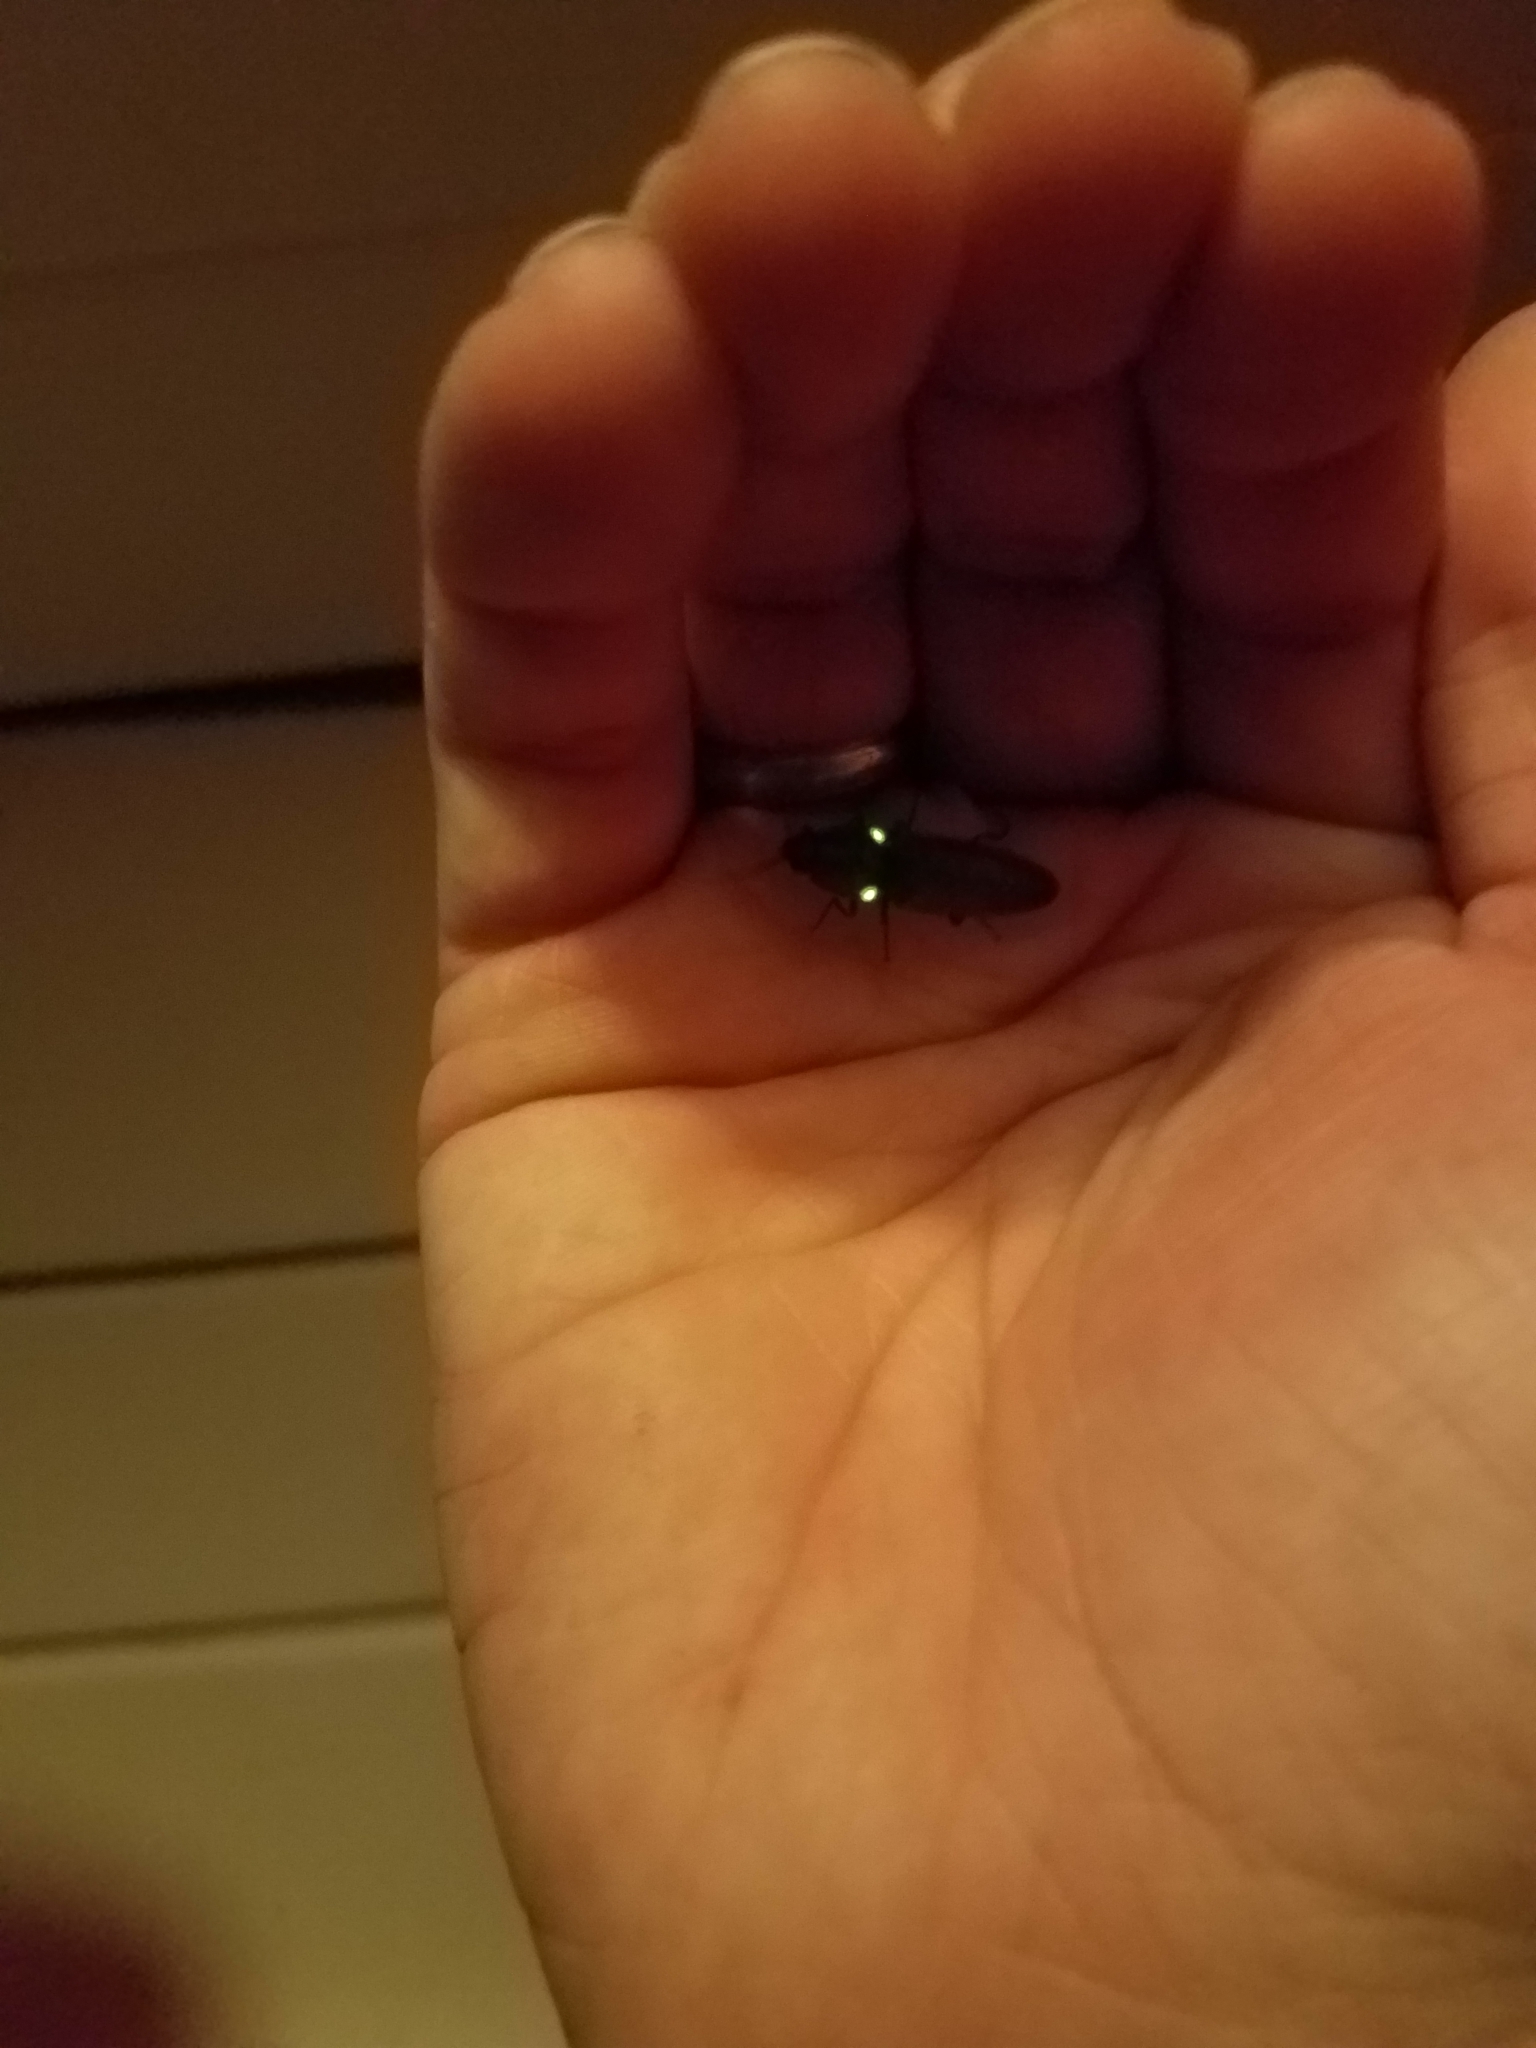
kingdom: Animalia
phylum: Arthropoda
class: Insecta
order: Coleoptera
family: Elateridae
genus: Deilelater
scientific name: Deilelater
